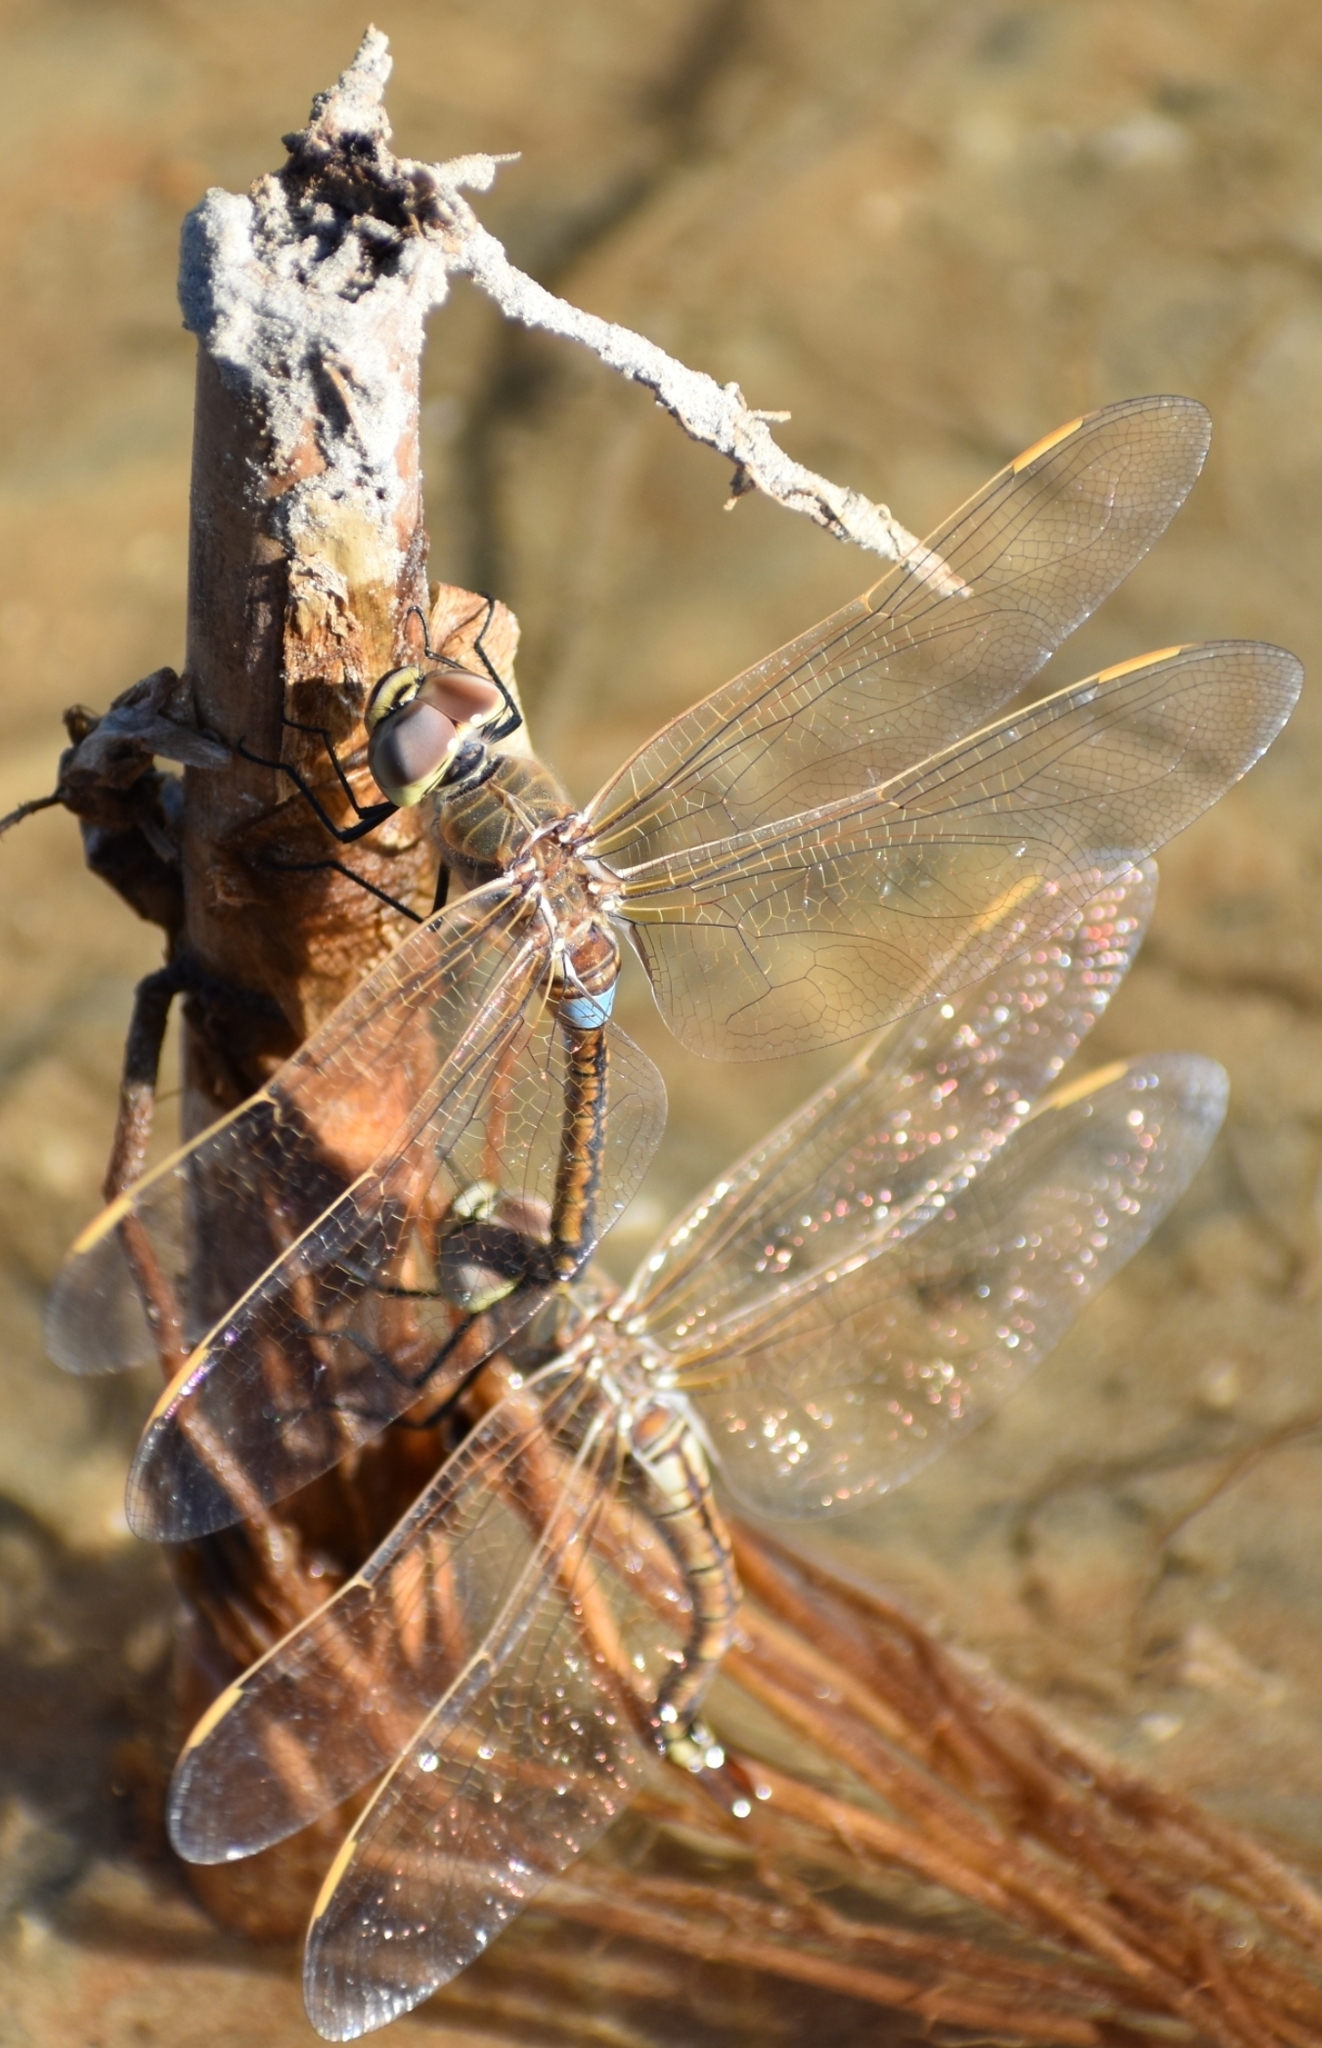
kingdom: Animalia
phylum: Arthropoda
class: Insecta
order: Odonata
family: Aeshnidae
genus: Anax
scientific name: Anax ephippiger
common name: Vagrant emperor
